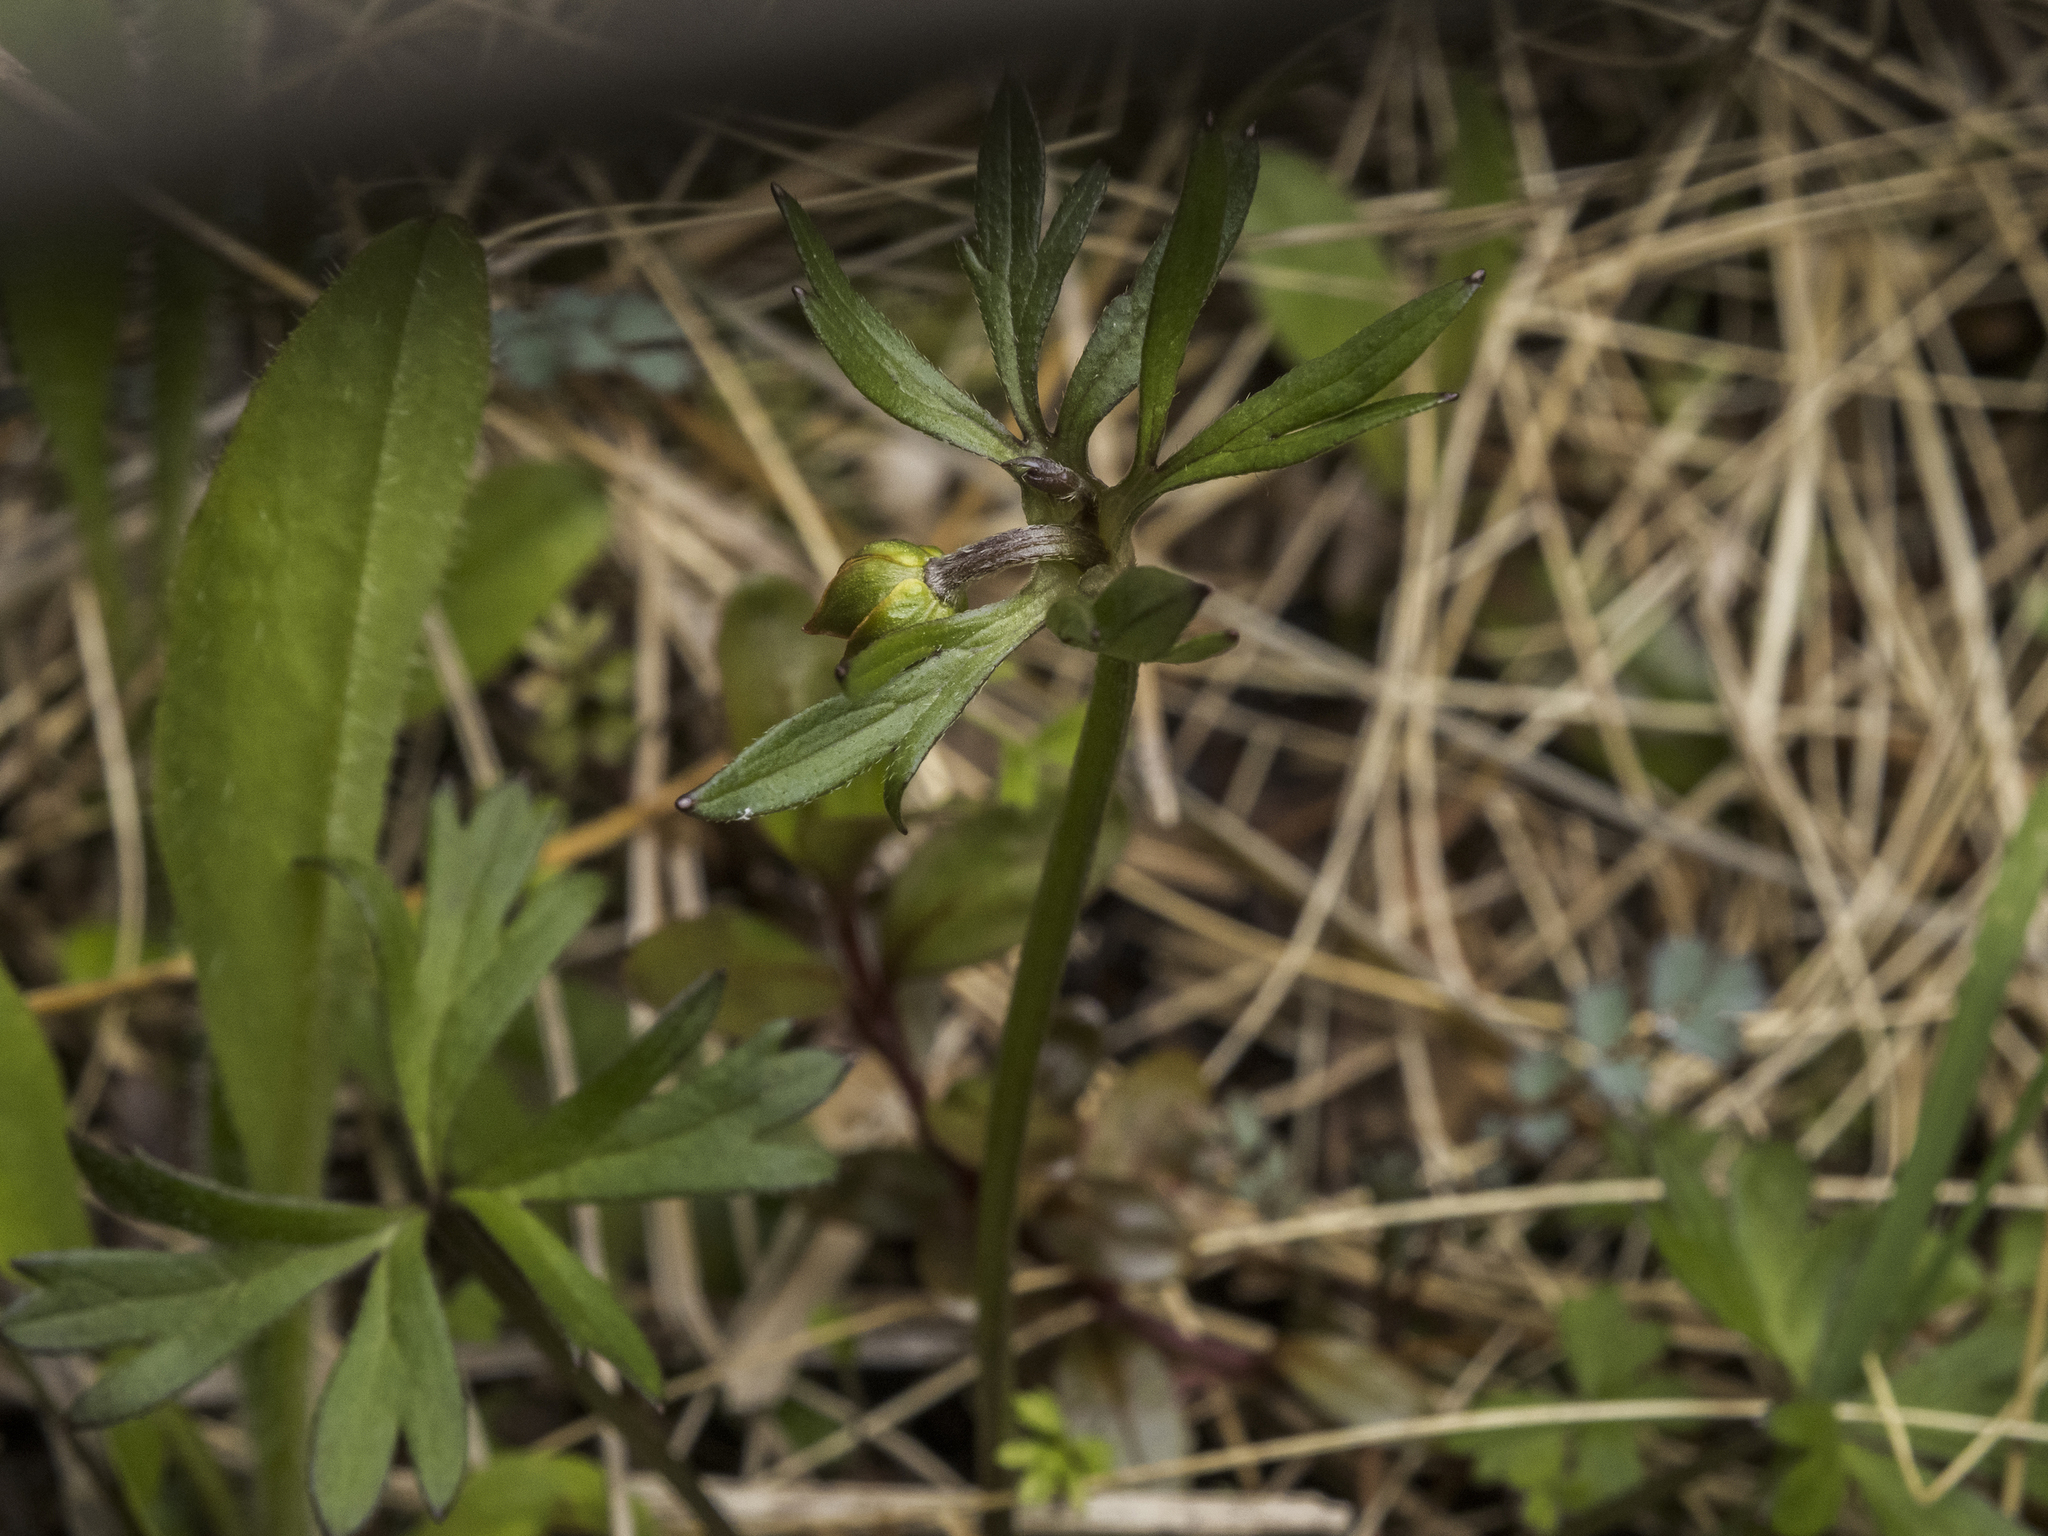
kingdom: Plantae
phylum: Tracheophyta
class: Magnoliopsida
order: Ranunculales
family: Ranunculaceae
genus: Anemonastrum
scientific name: Anemonastrum tenuicaule
